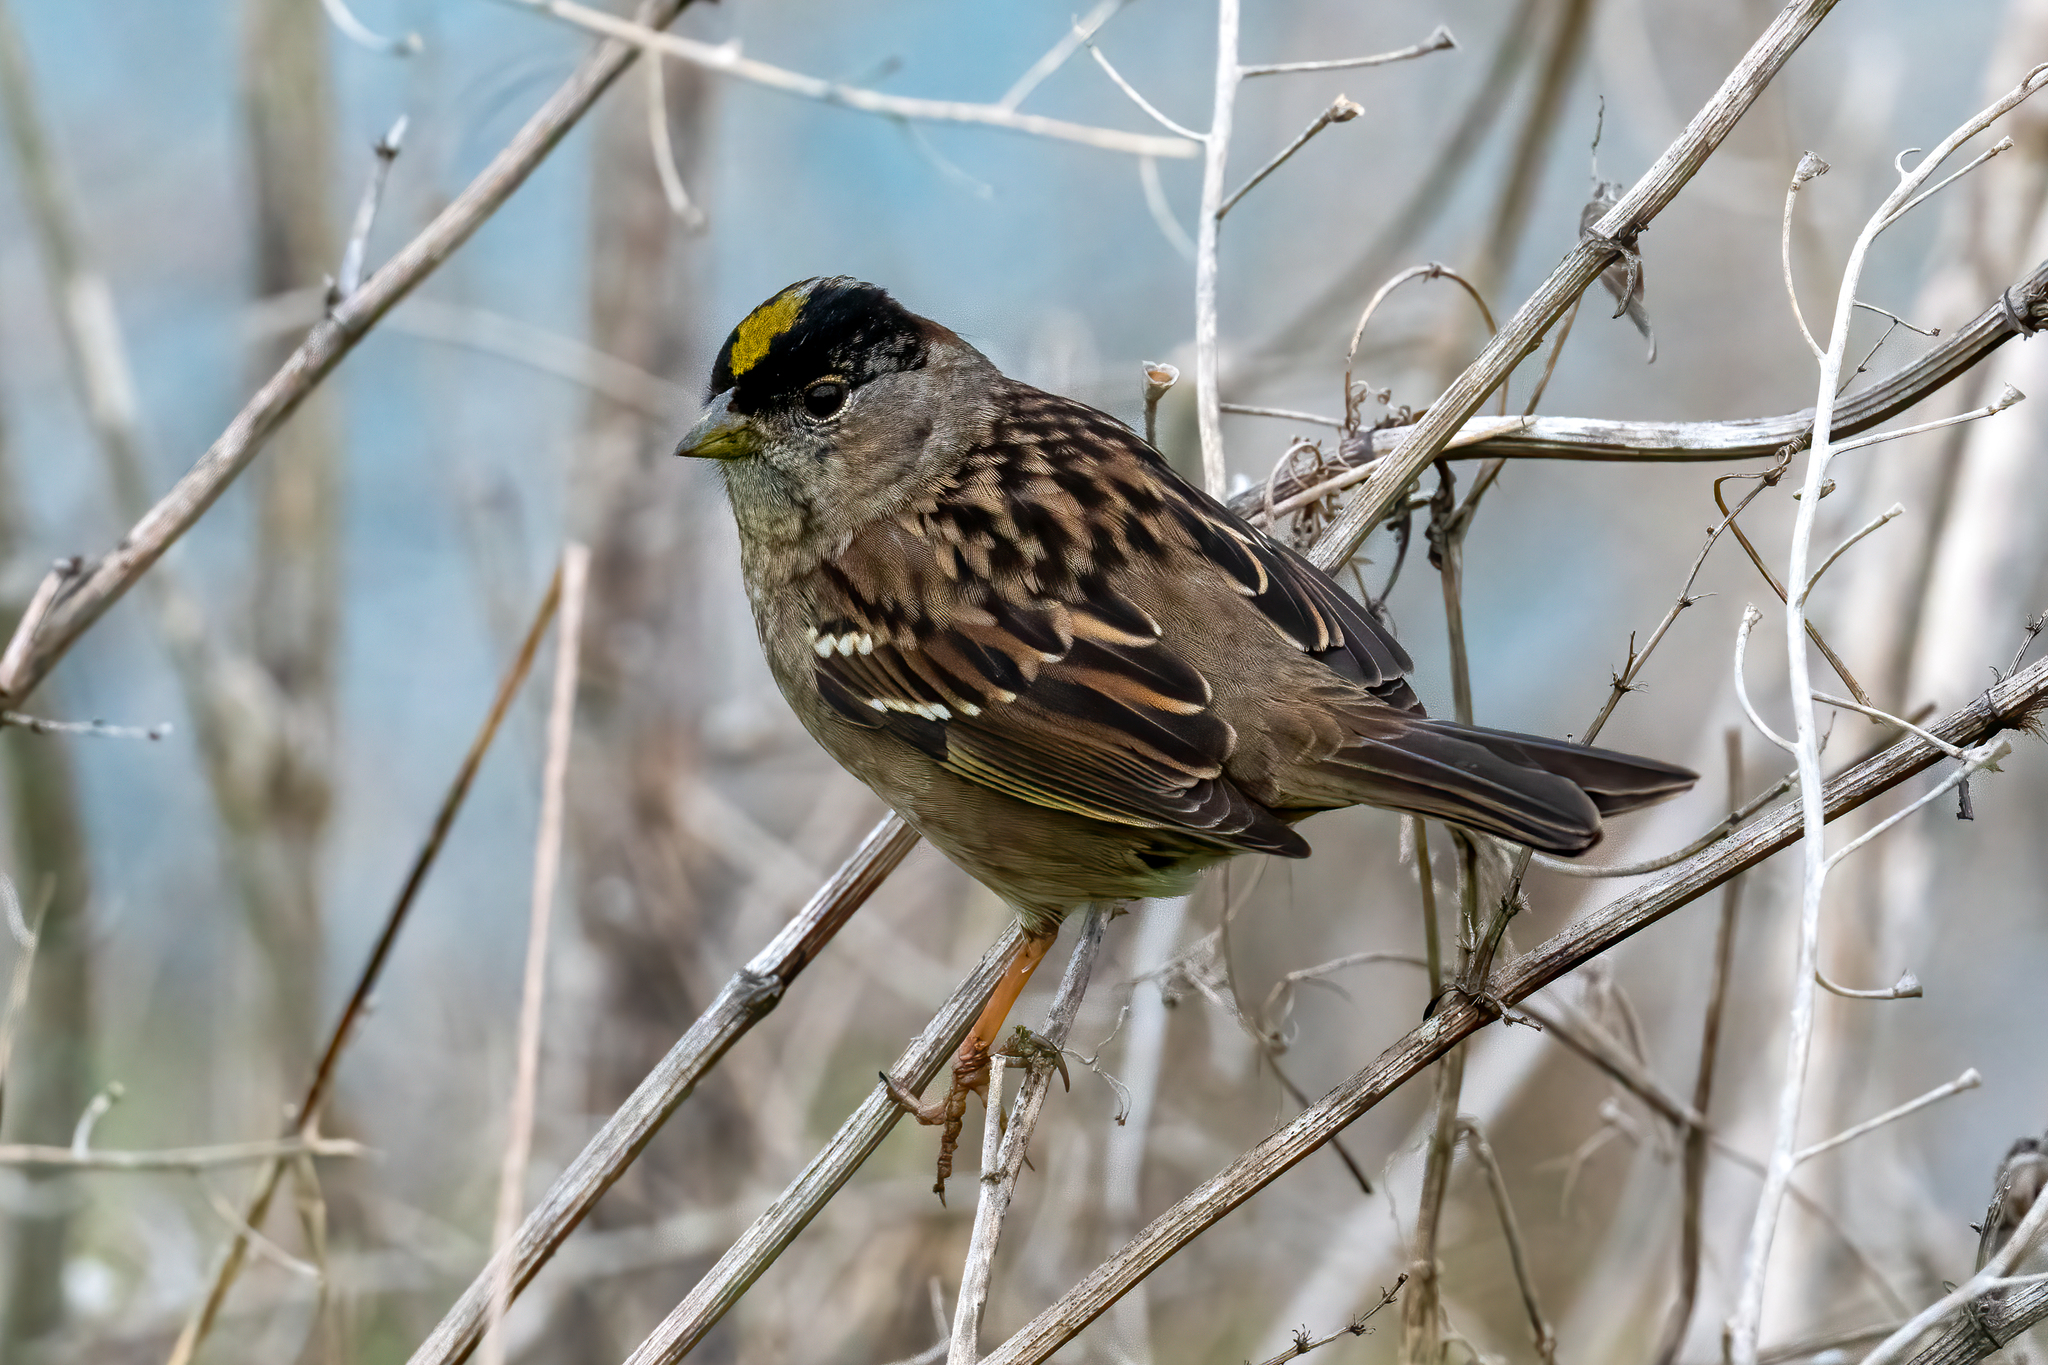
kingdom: Animalia
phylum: Chordata
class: Aves
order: Passeriformes
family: Passerellidae
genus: Zonotrichia
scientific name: Zonotrichia atricapilla
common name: Golden-crowned sparrow
